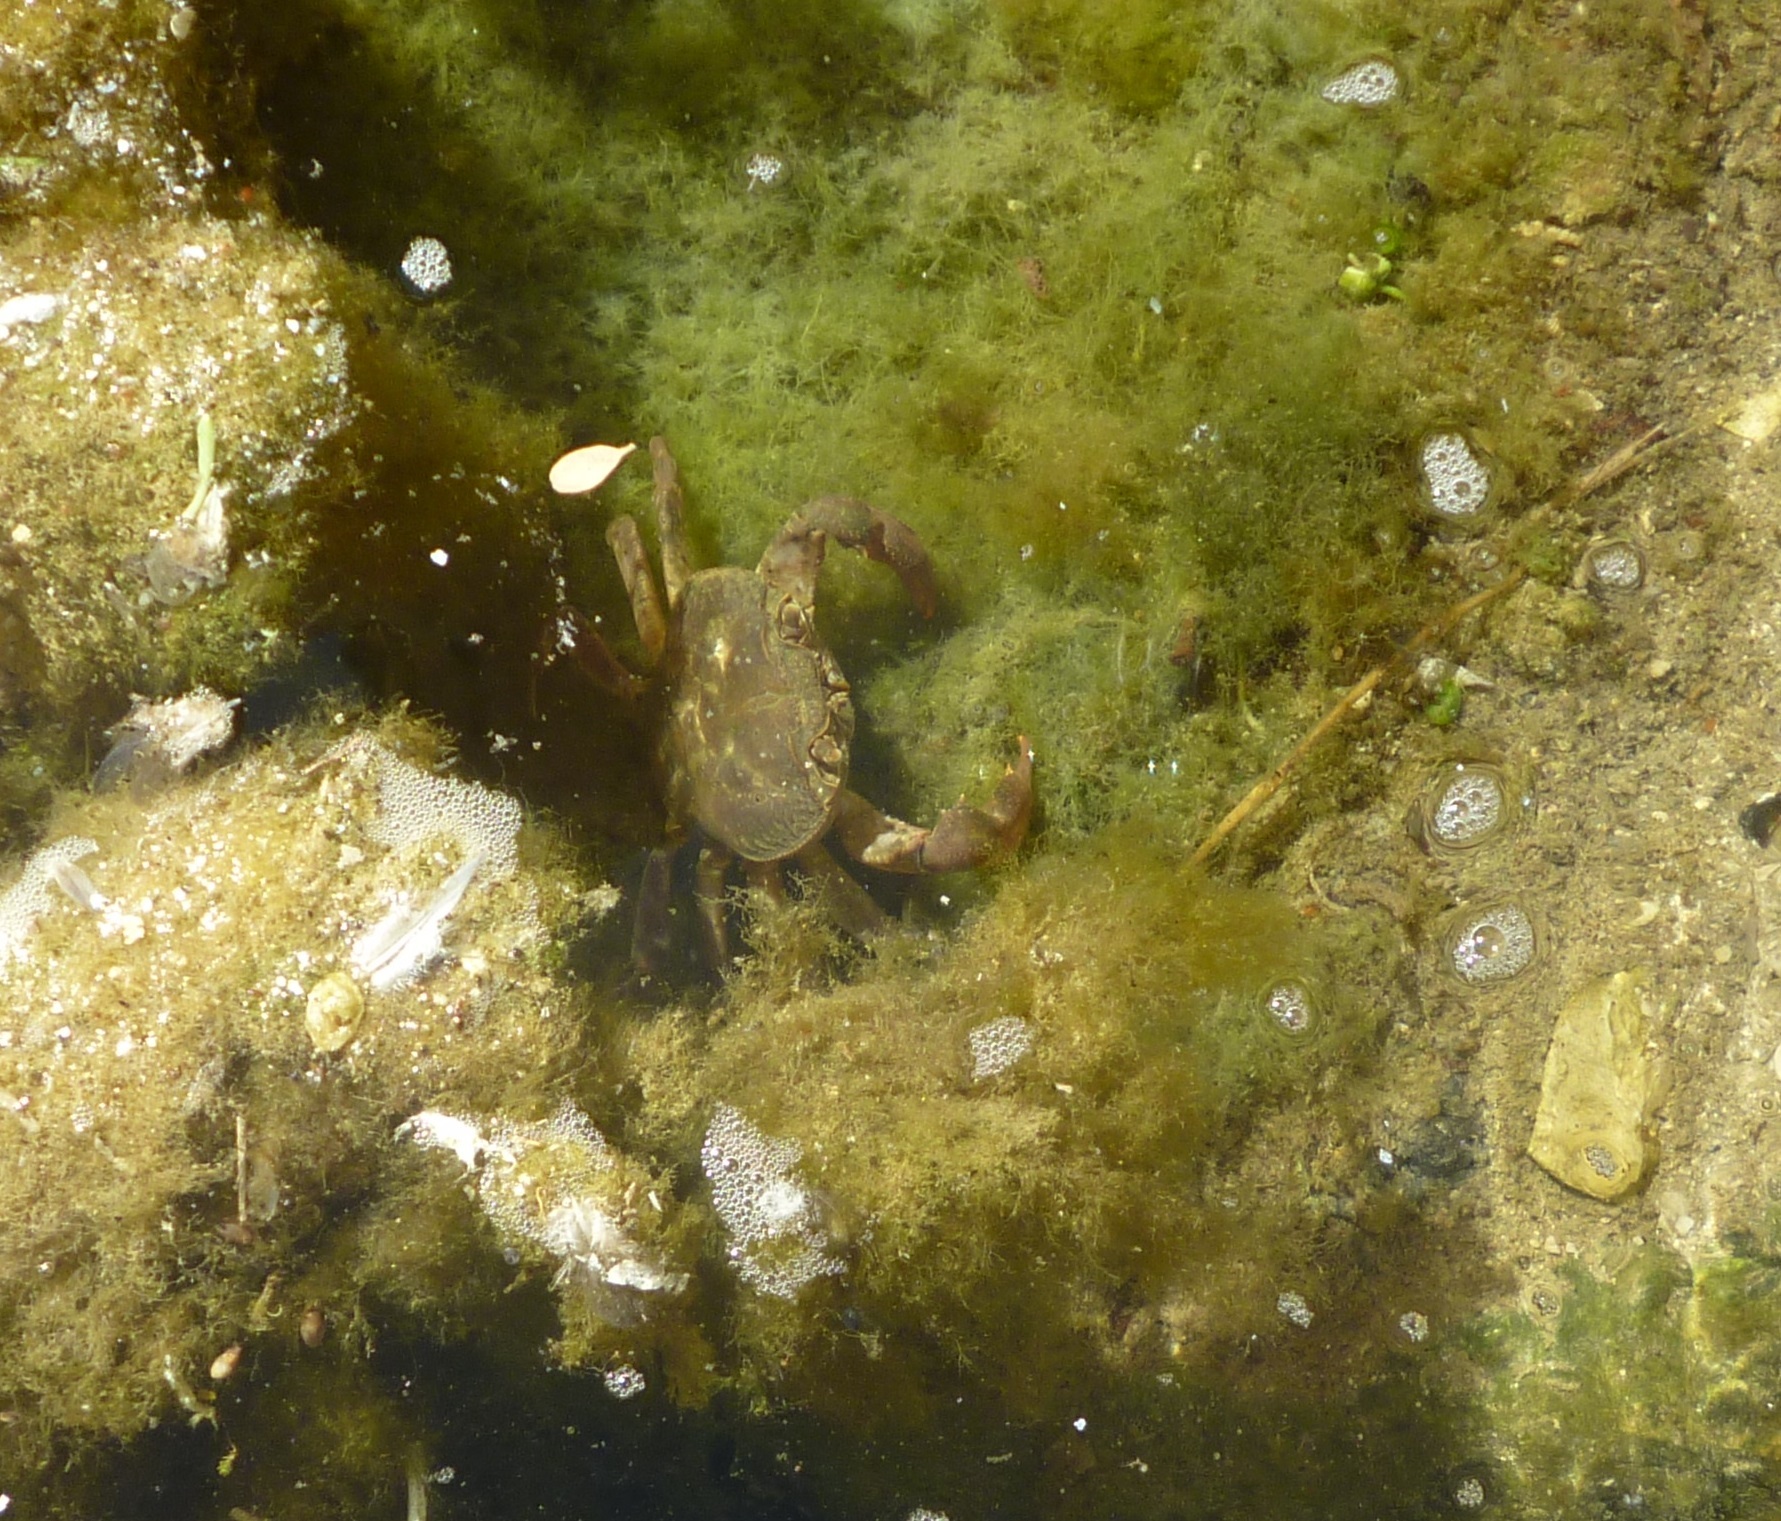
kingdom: Animalia
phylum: Arthropoda
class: Malacostraca
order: Decapoda
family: Potamidae
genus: Potamon
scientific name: Potamon potamios
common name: Aegean freshwater crab
